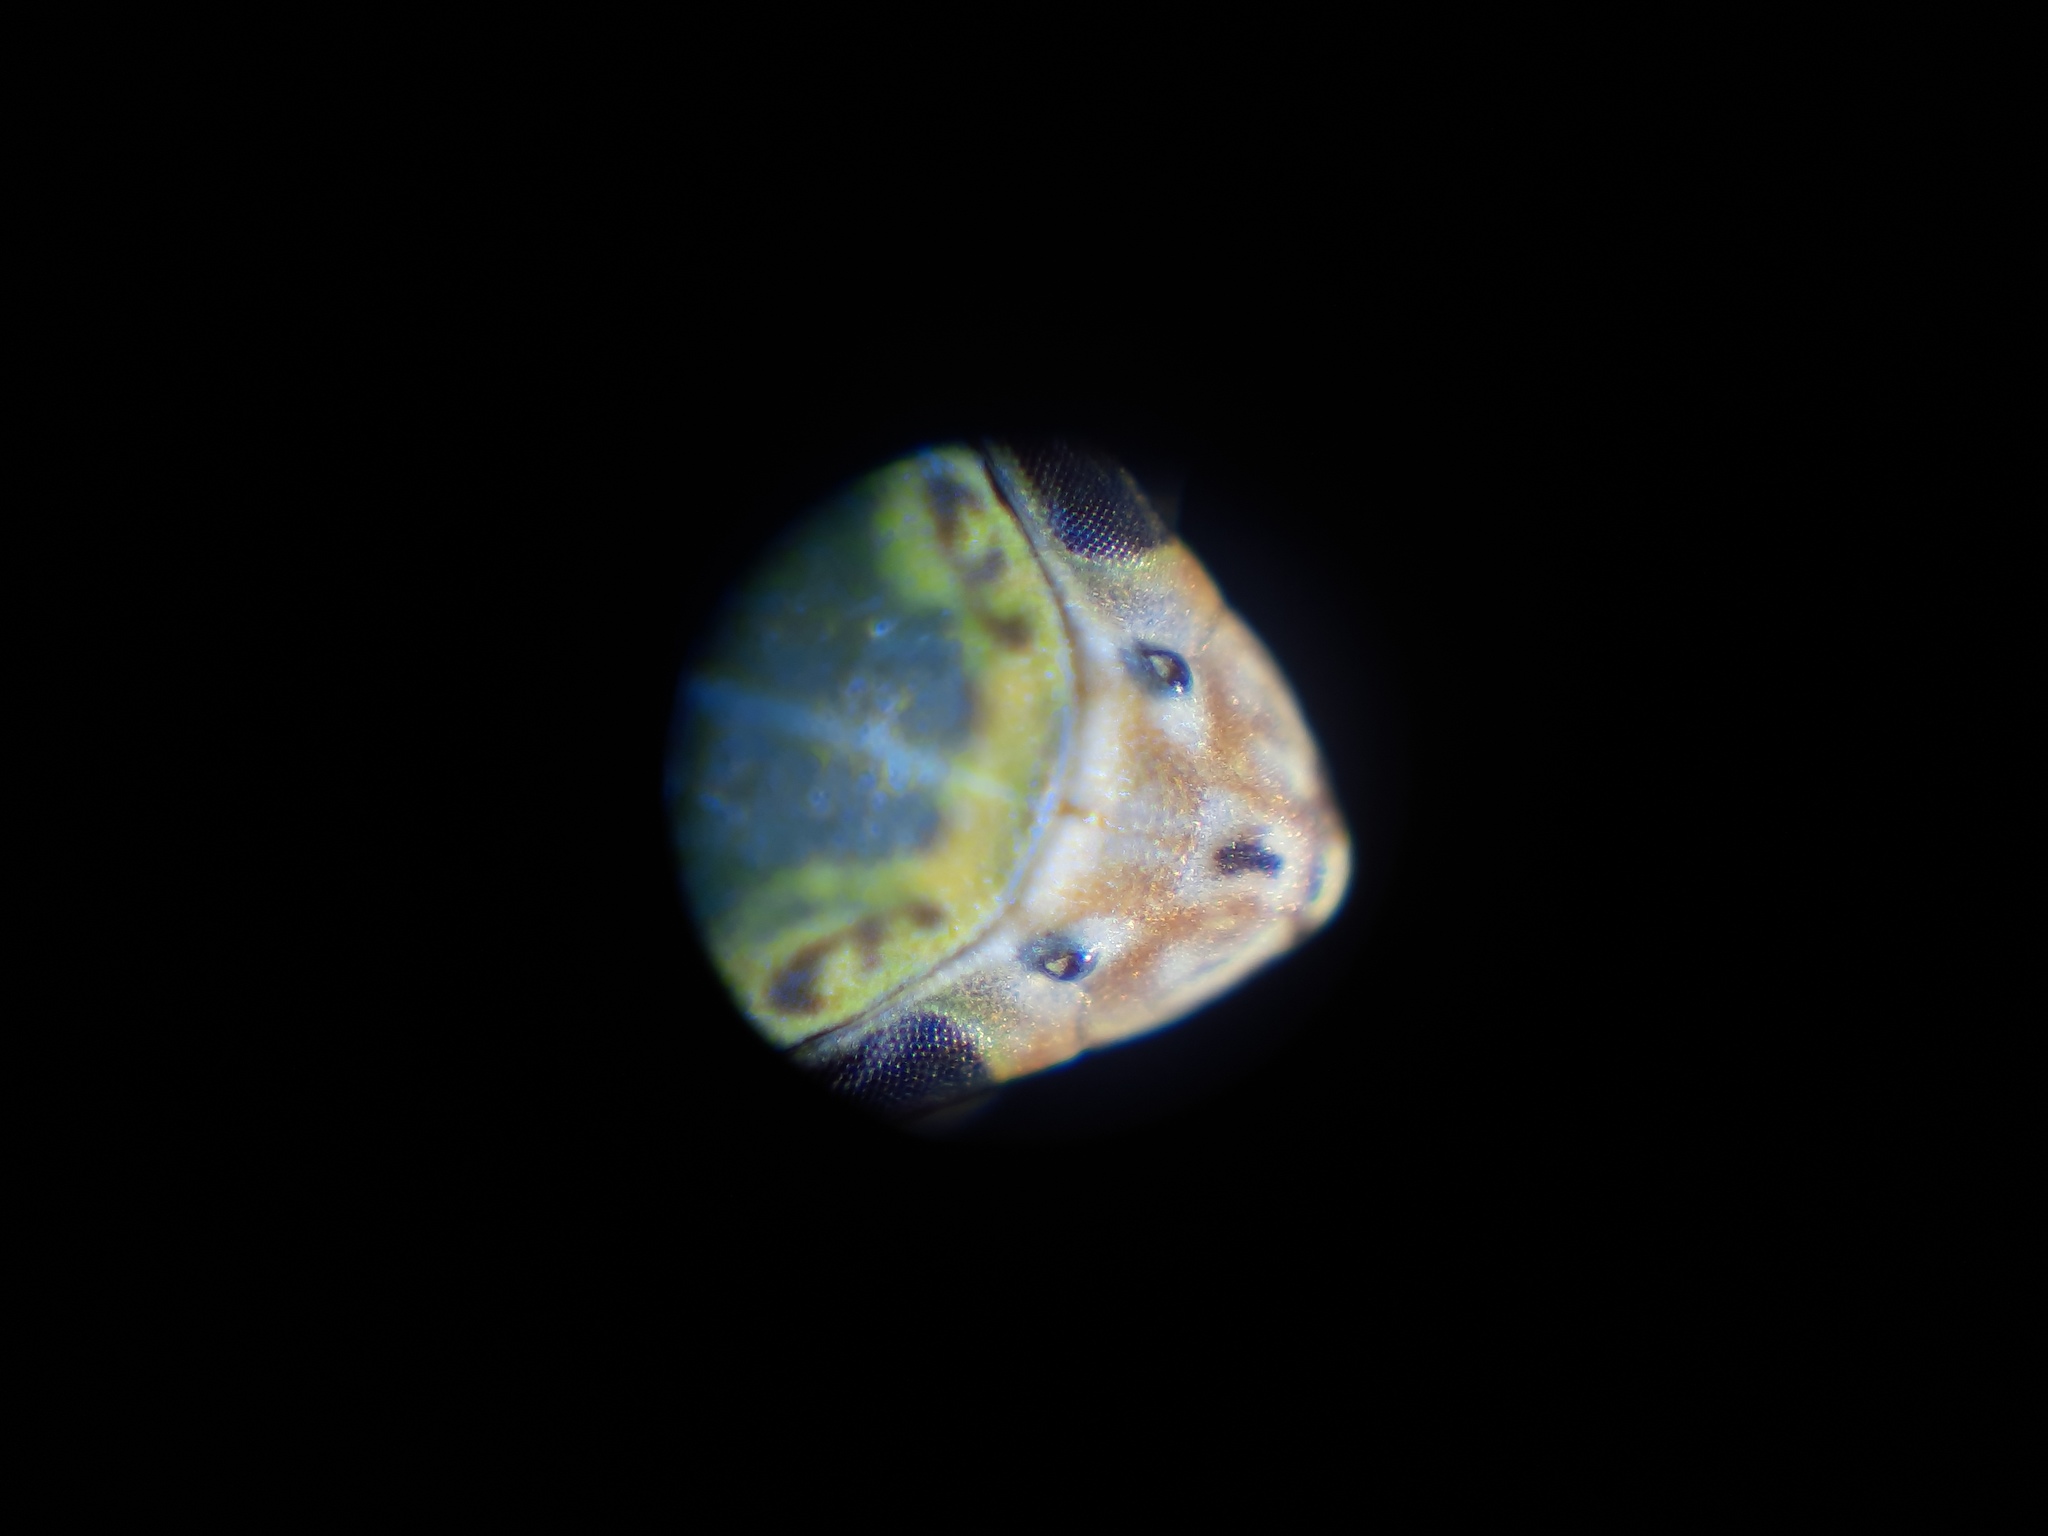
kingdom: Animalia
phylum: Arthropoda
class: Insecta
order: Hemiptera
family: Cicadellidae
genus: Xyphon
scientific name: Xyphon reticulatum
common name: Planthopper
